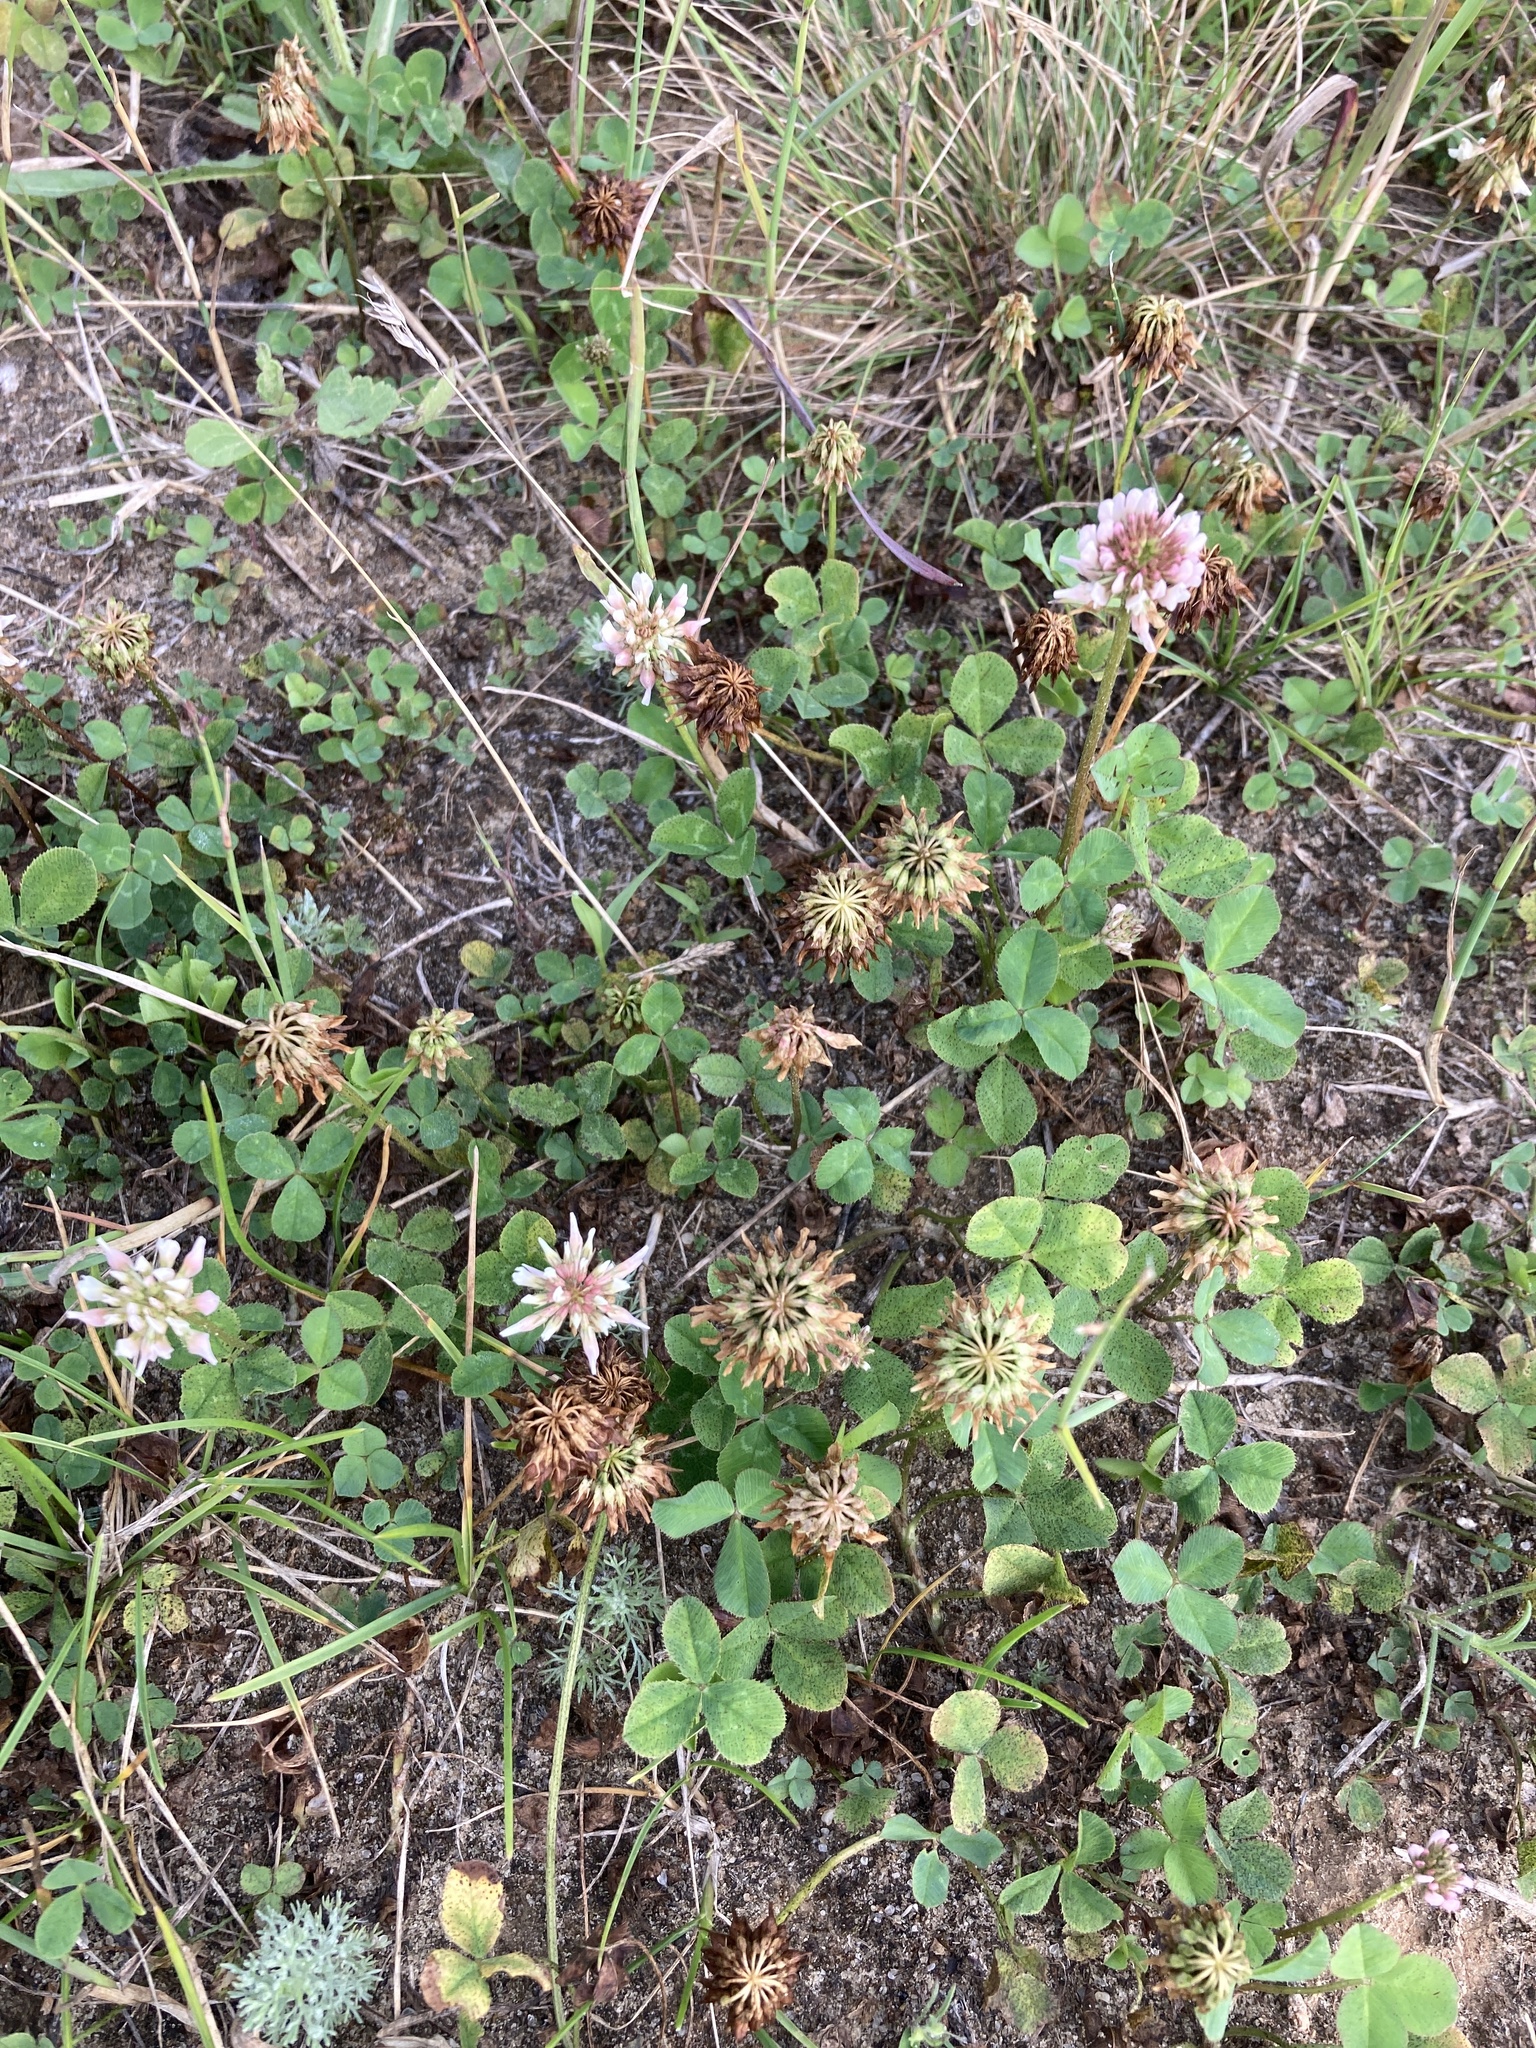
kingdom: Plantae
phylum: Tracheophyta
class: Magnoliopsida
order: Fabales
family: Fabaceae
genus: Trifolium
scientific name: Trifolium repens
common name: White clover
